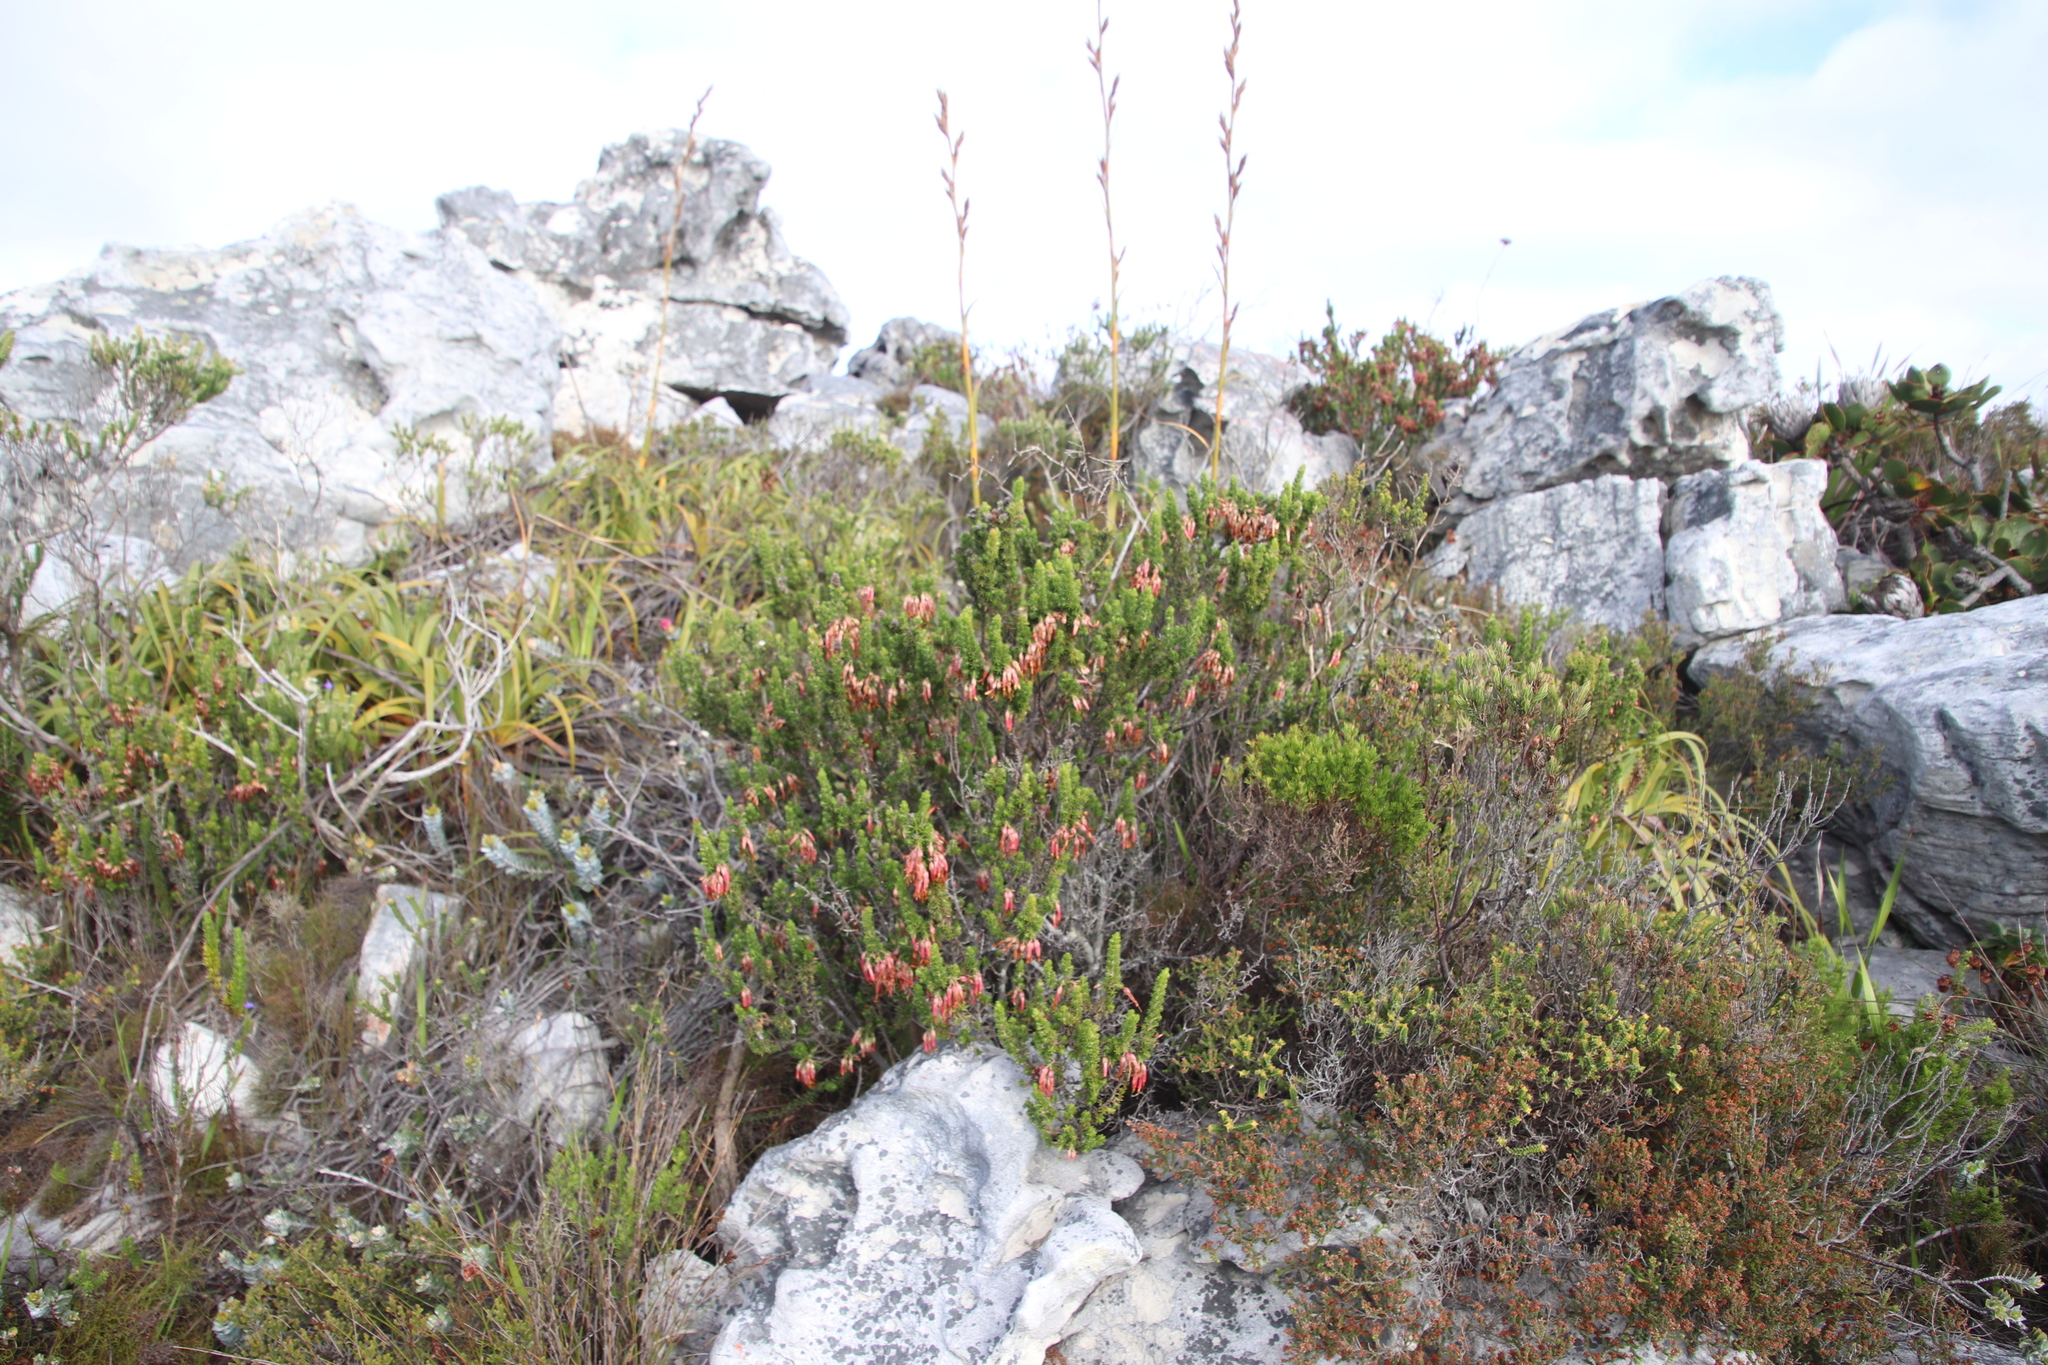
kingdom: Plantae
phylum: Tracheophyta
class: Magnoliopsida
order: Ericales
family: Ericaceae
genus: Erica
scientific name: Erica coccinea
